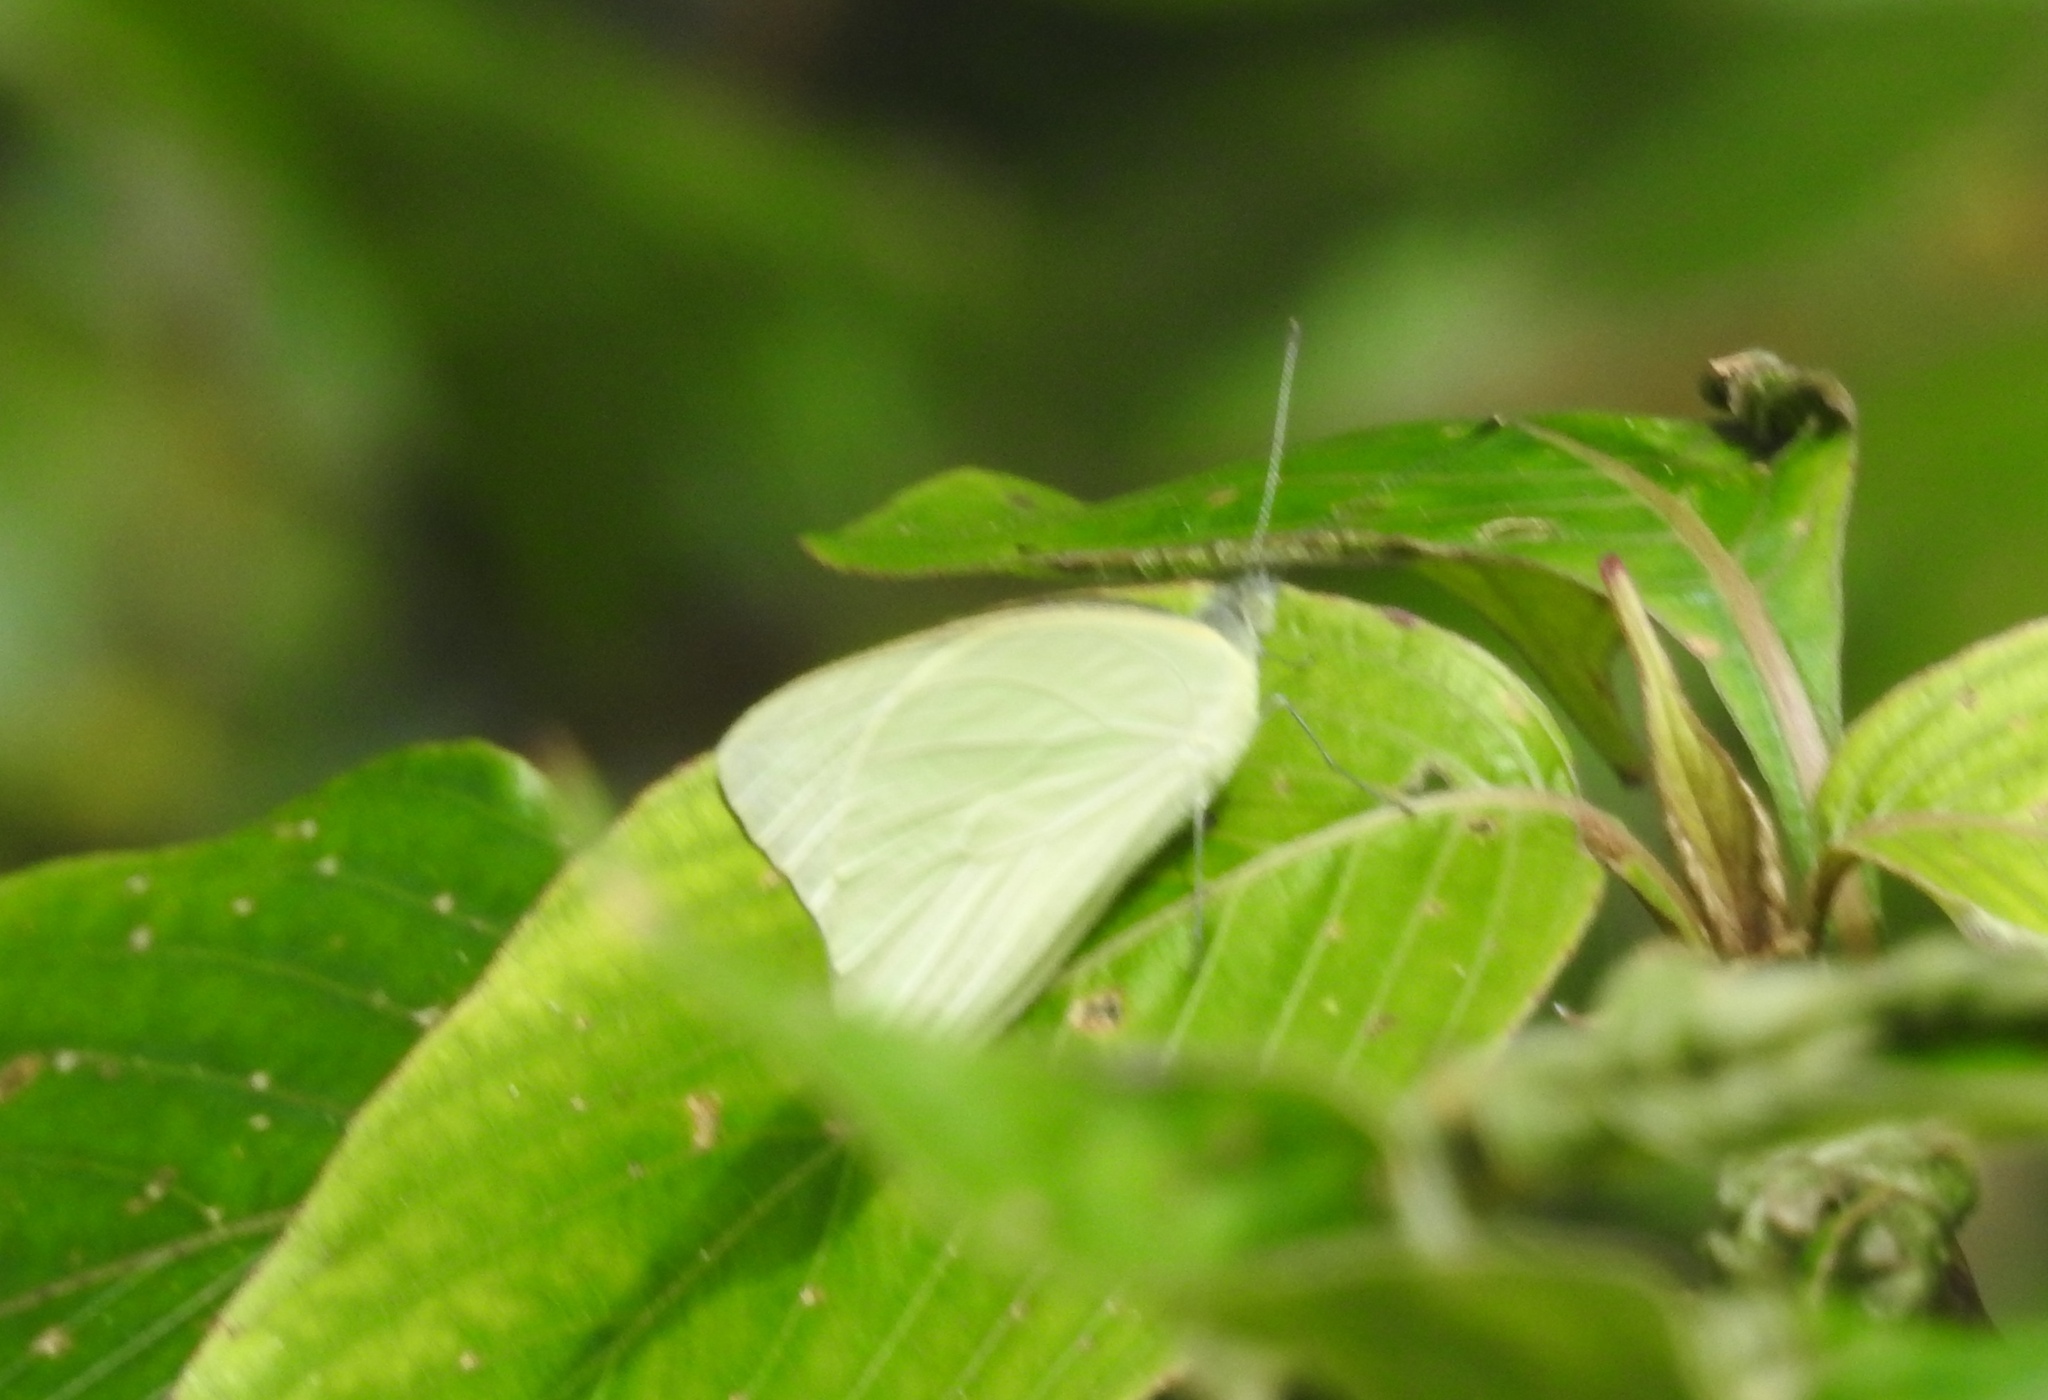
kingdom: Animalia
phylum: Arthropoda
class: Insecta
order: Lepidoptera
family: Pieridae
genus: Appias
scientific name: Appias albina
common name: Common albatross
